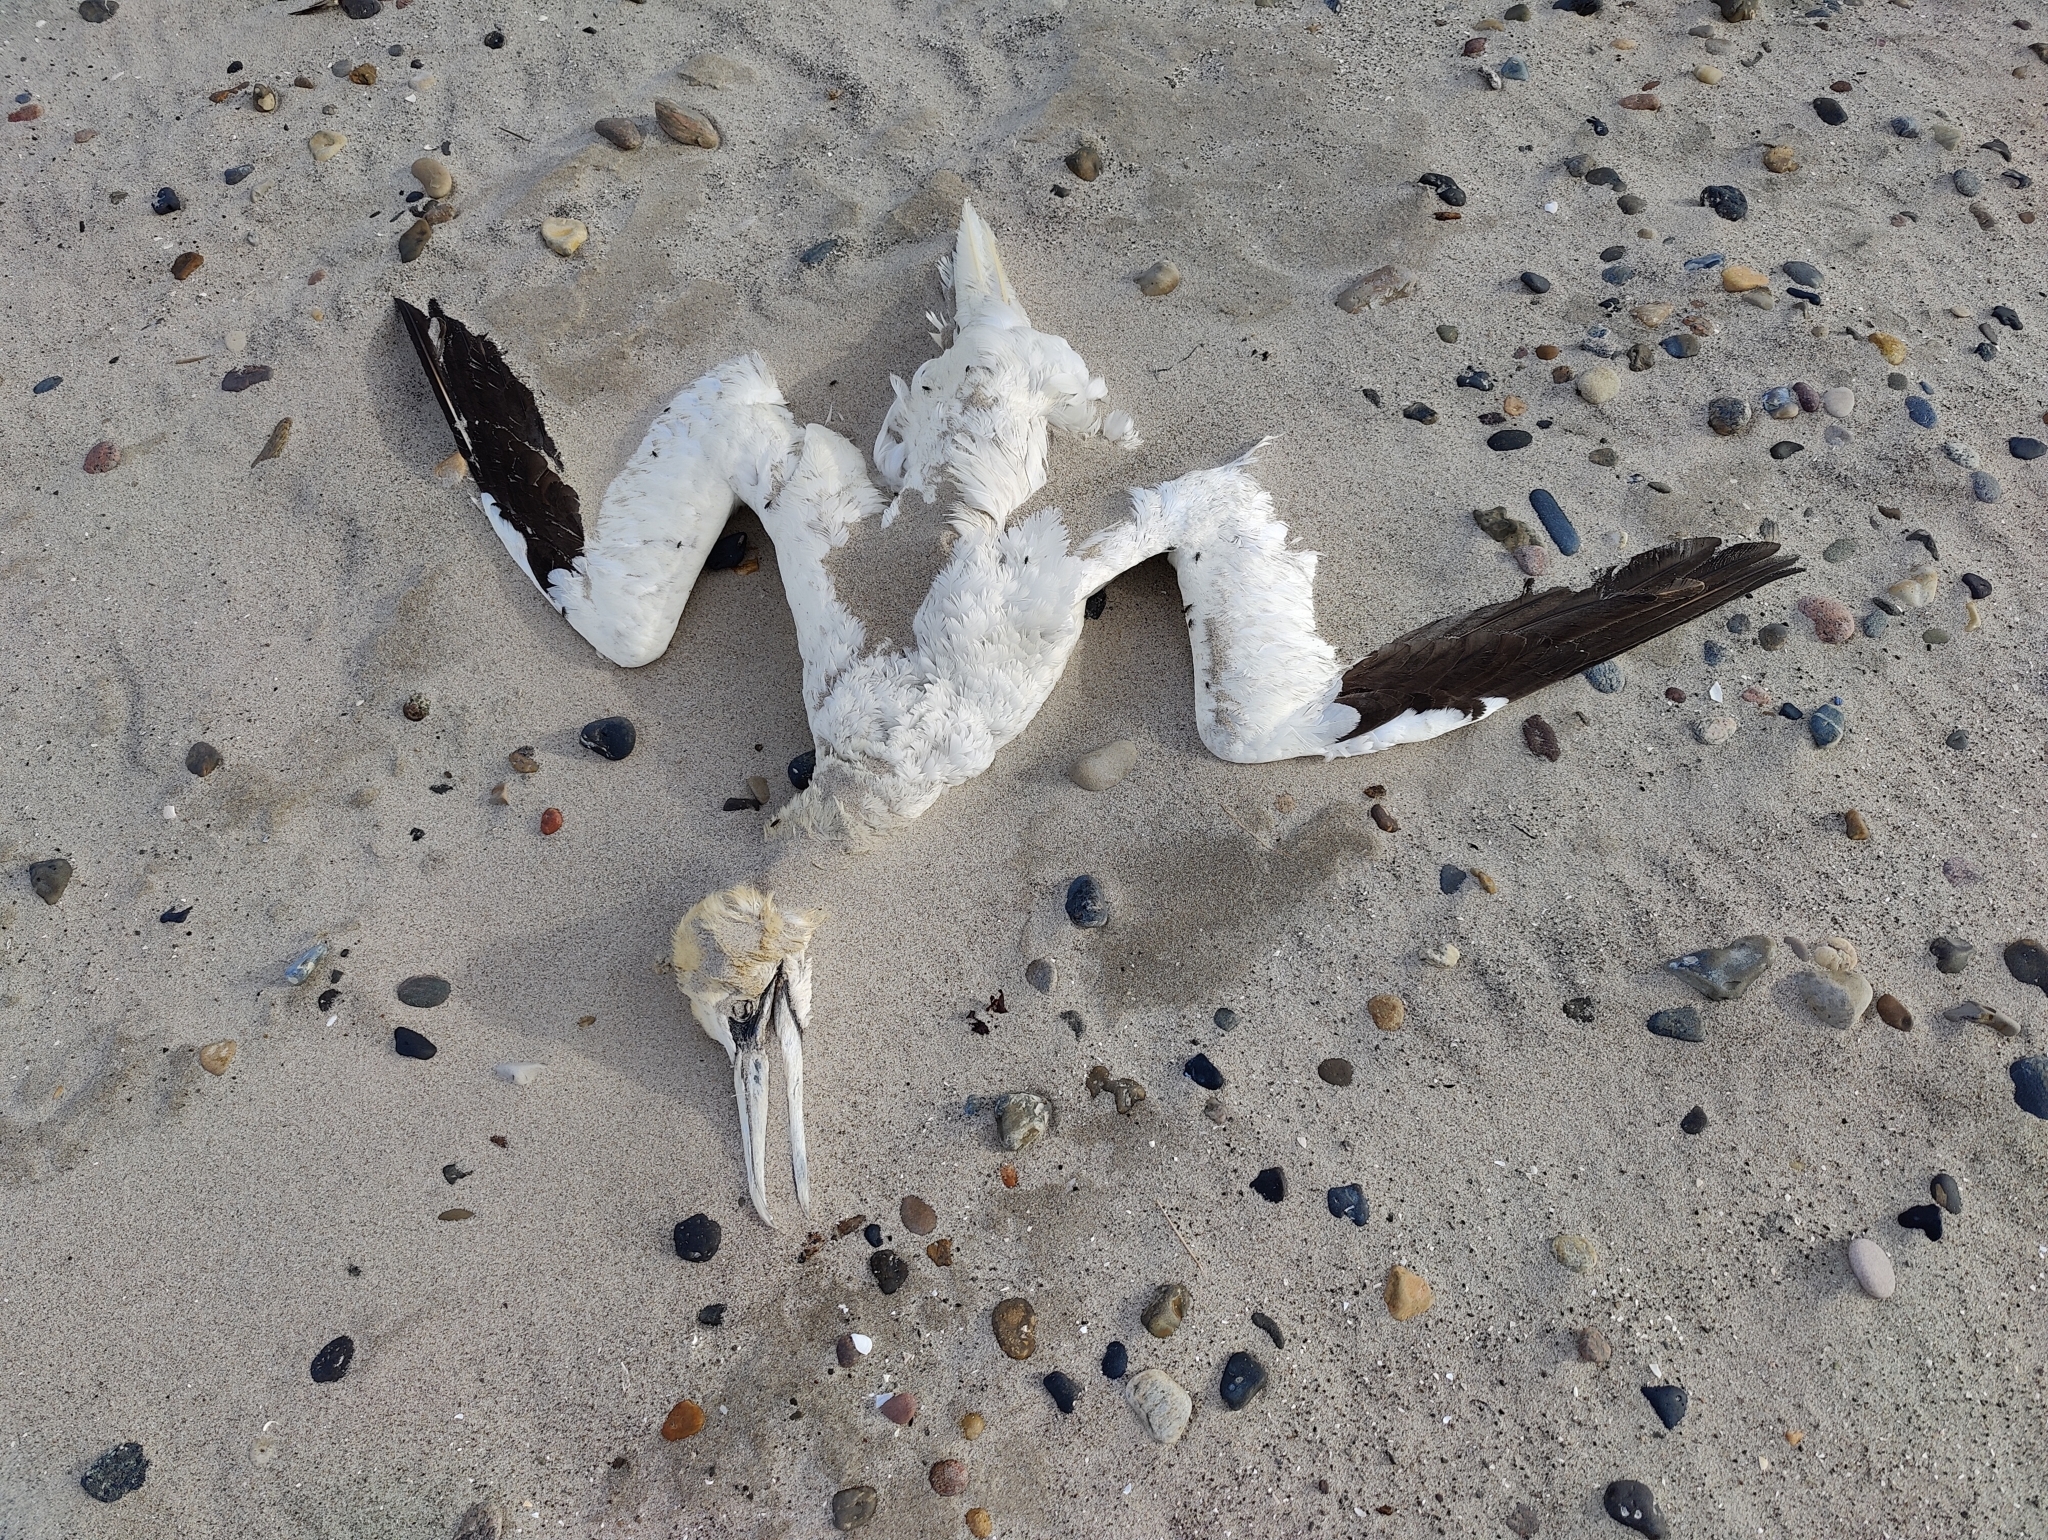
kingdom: Animalia
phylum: Chordata
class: Aves
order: Suliformes
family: Sulidae
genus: Morus
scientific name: Morus bassanus
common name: Northern gannet
